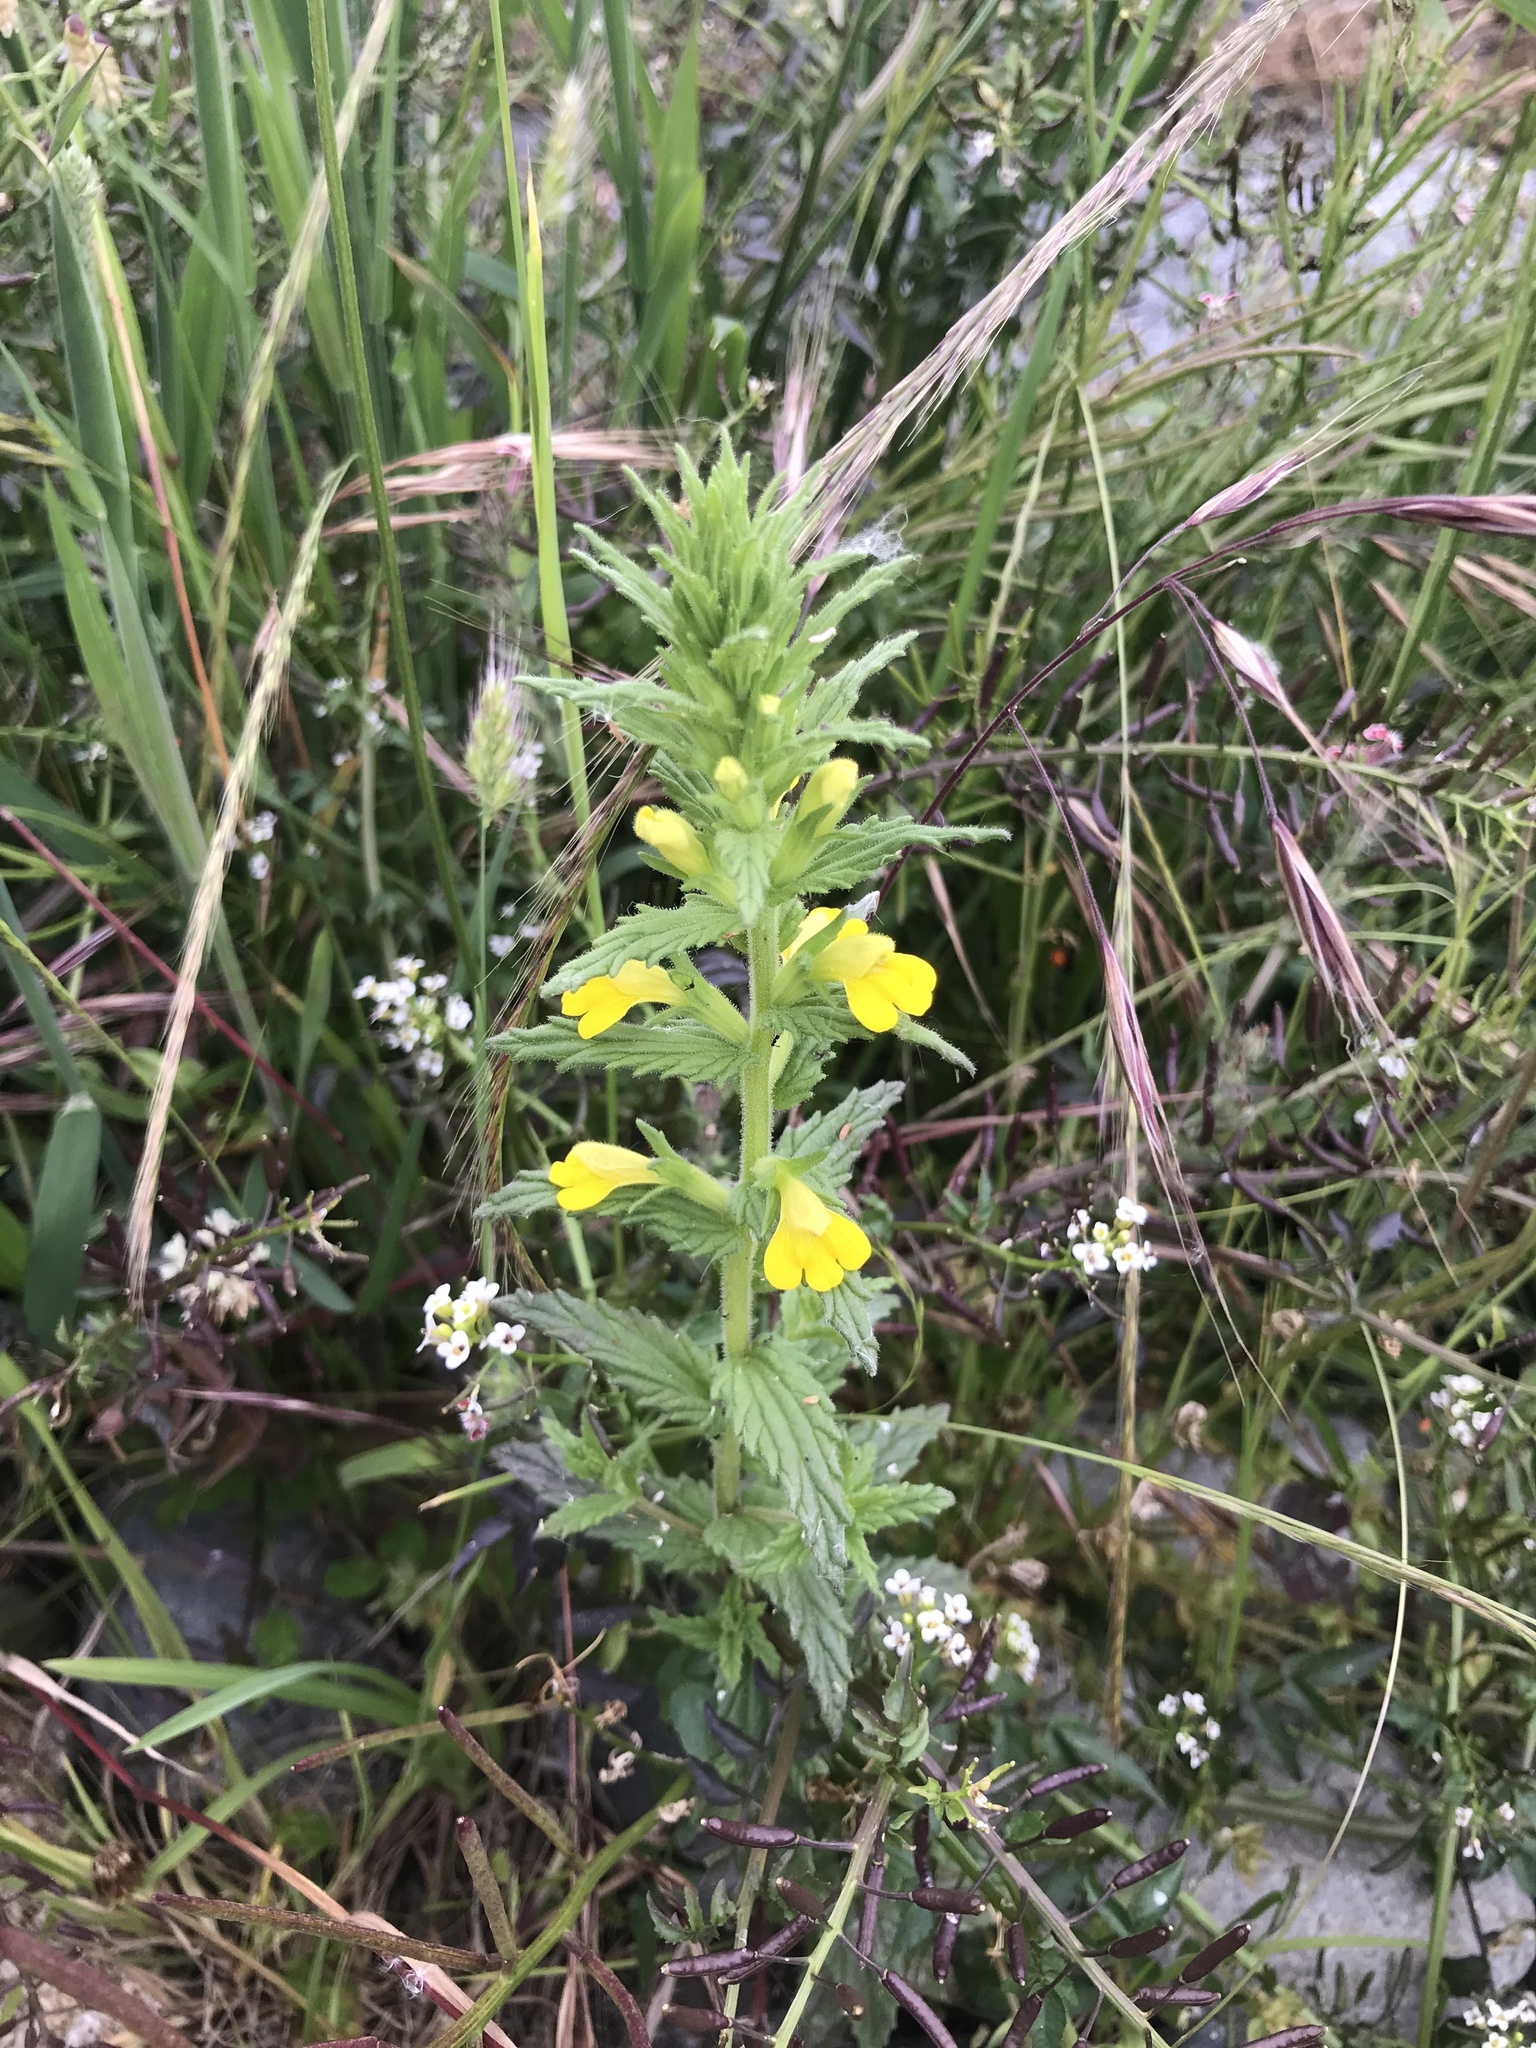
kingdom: Plantae
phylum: Tracheophyta
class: Magnoliopsida
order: Lamiales
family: Orobanchaceae
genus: Bellardia
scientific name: Bellardia viscosa
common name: Sticky parentucellia
